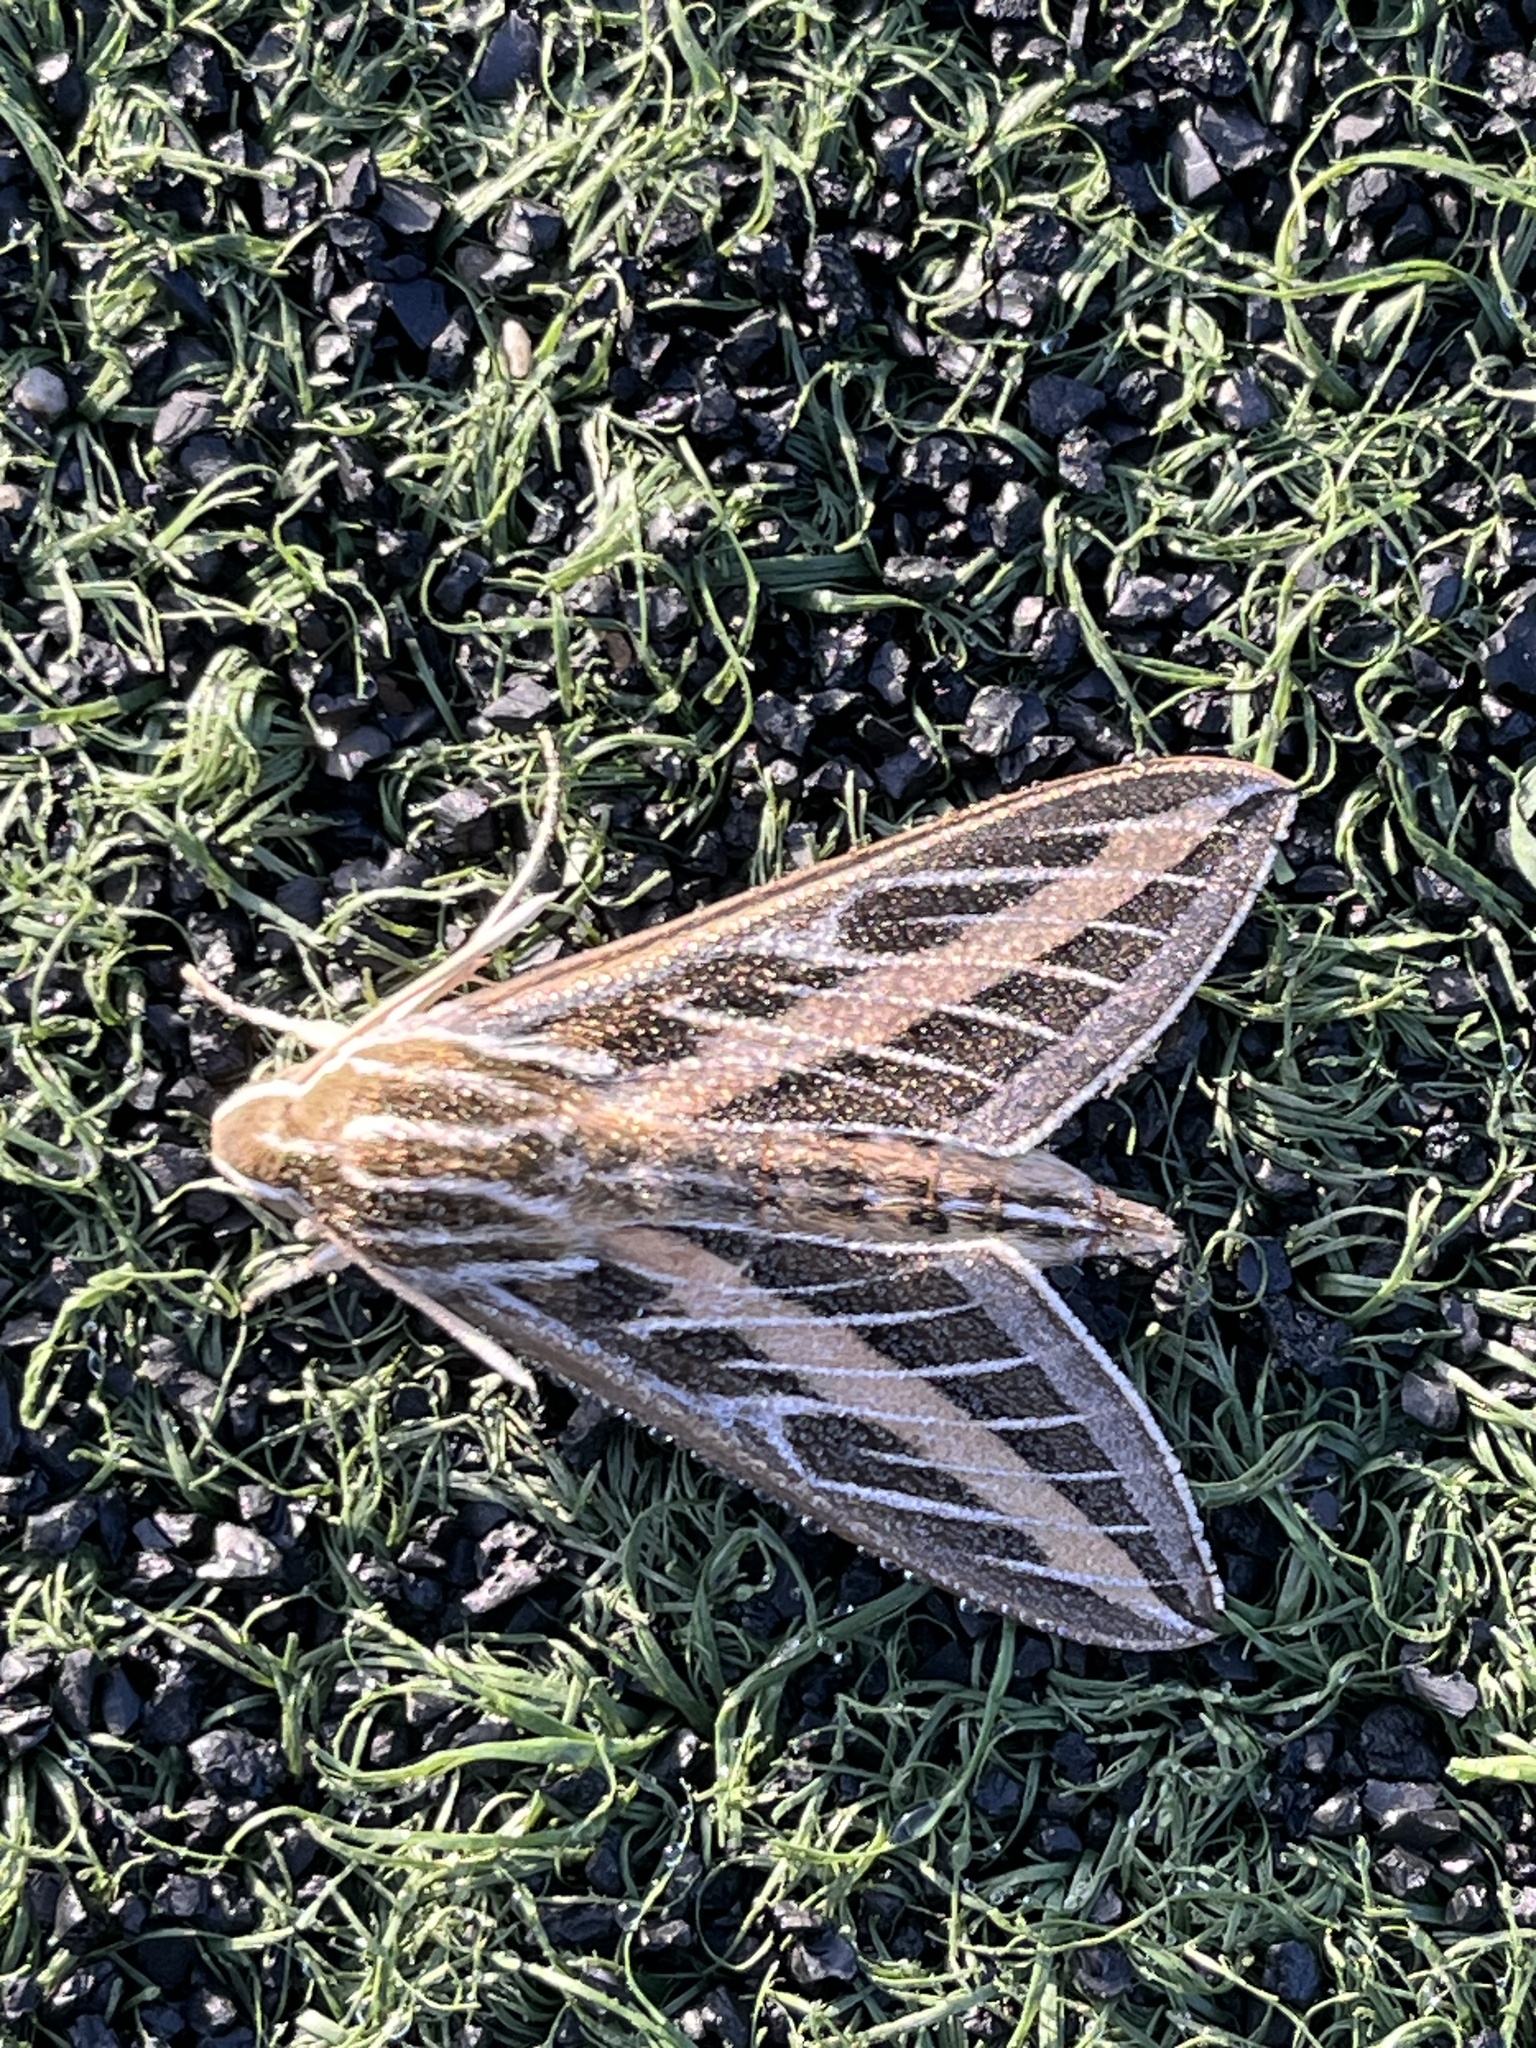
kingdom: Animalia
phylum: Arthropoda
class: Insecta
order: Lepidoptera
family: Sphingidae
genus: Hyles
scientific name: Hyles lineata
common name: White-lined sphinx
